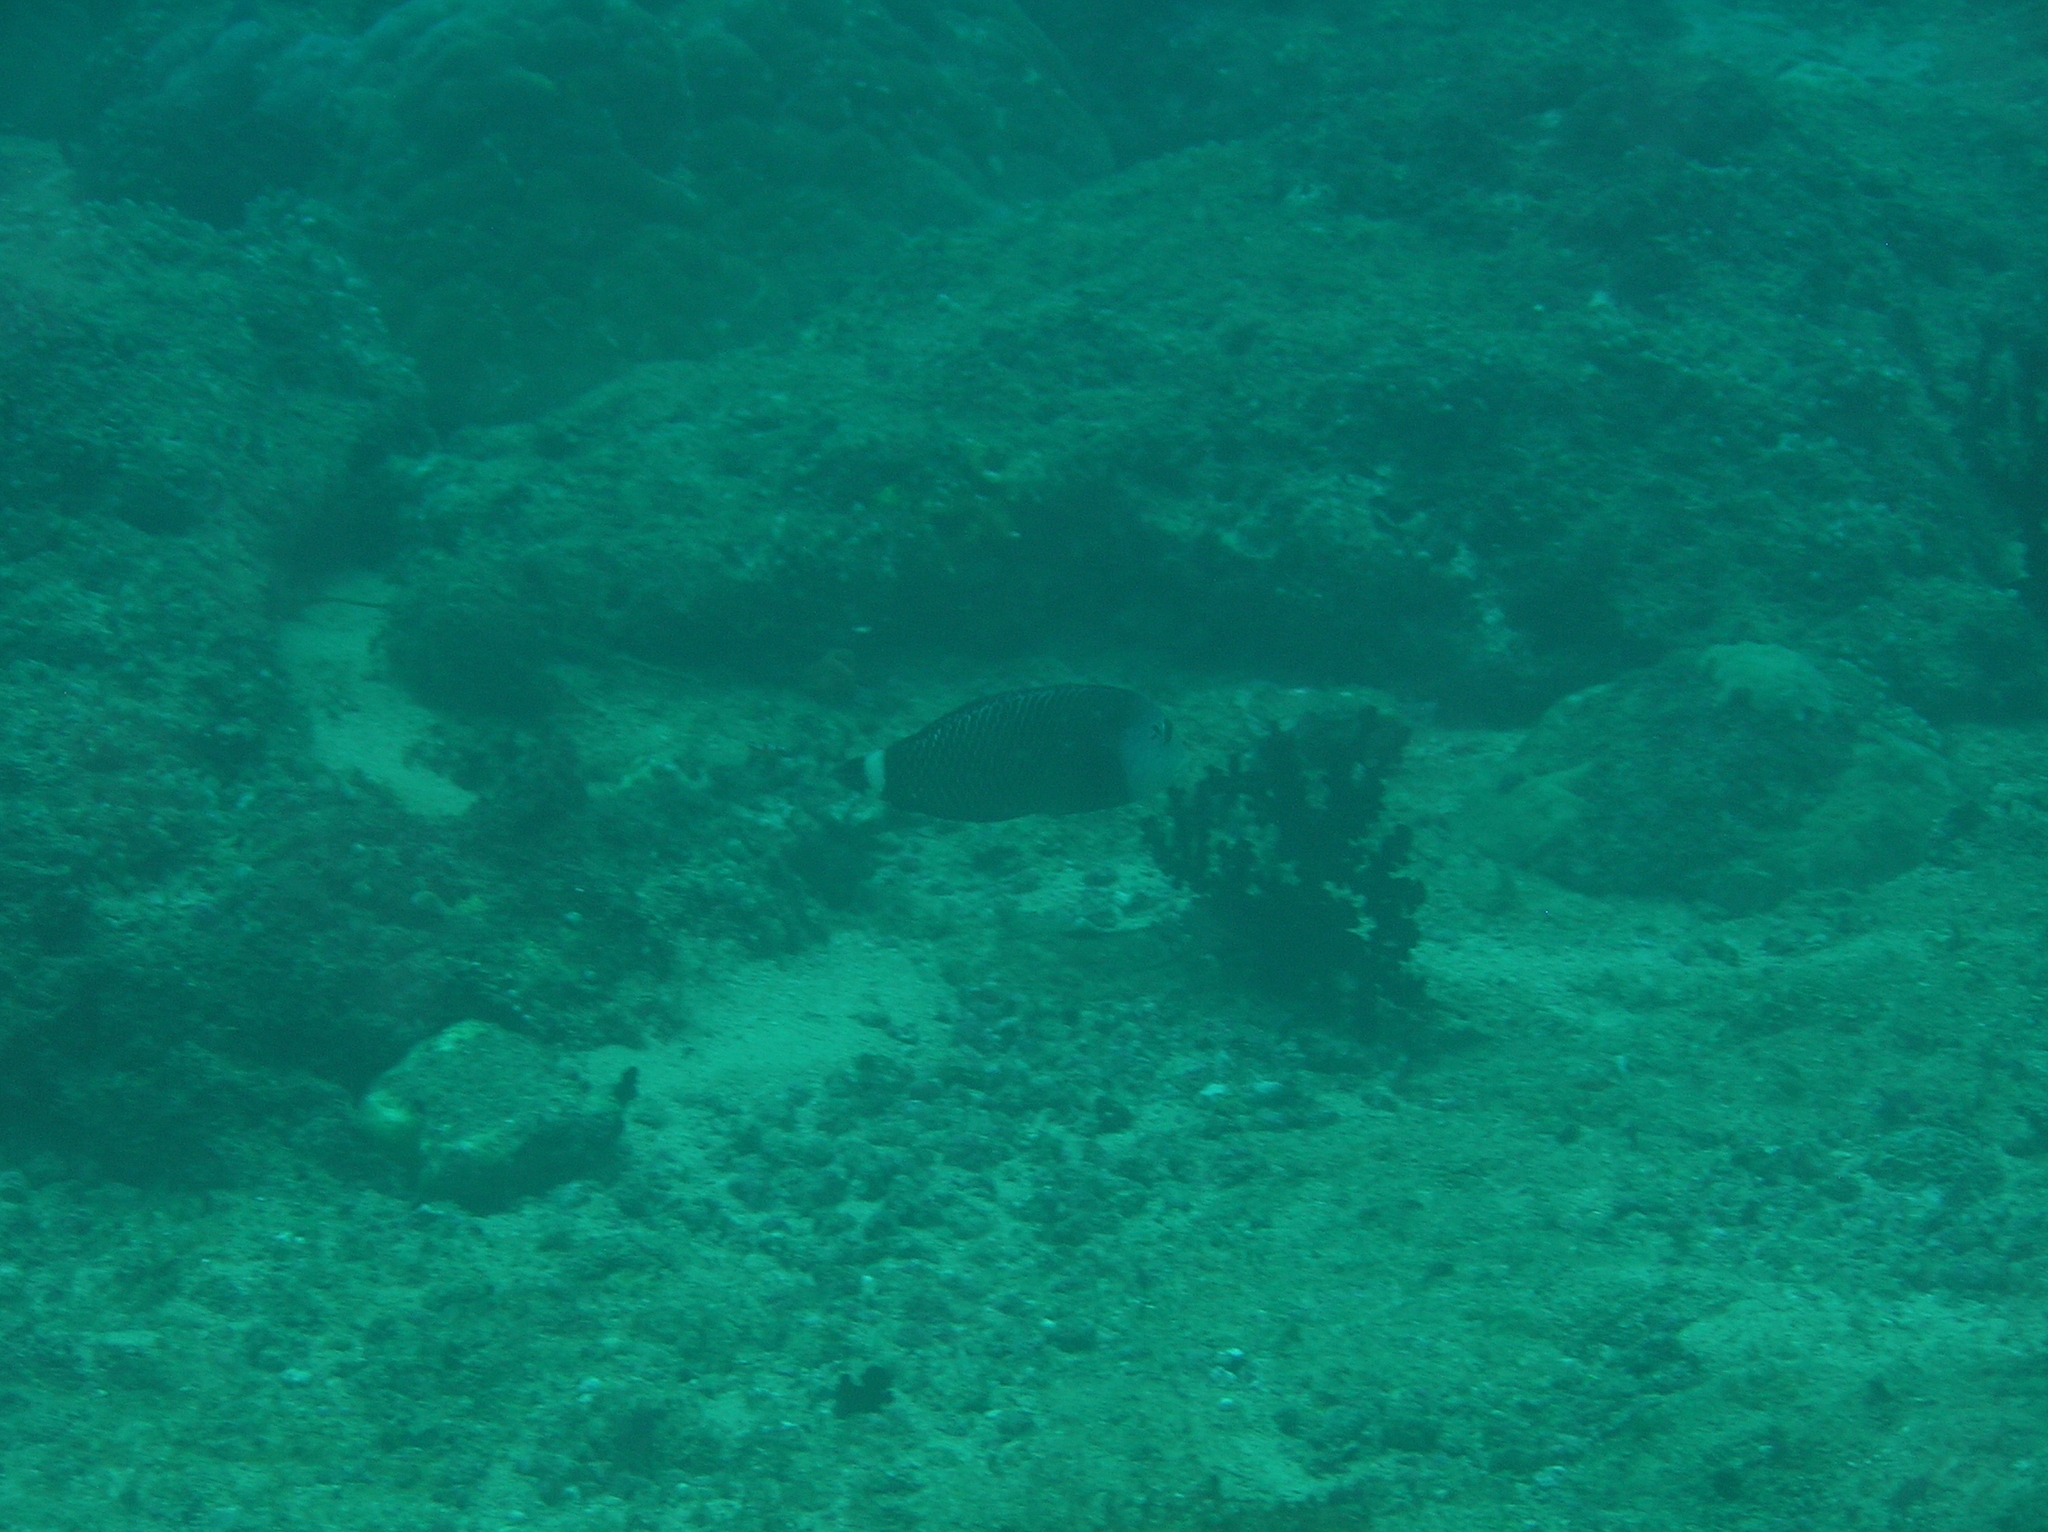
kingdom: Animalia
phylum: Chordata
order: Perciformes
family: Labridae
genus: Novaculichthys
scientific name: Novaculichthys taeniourus
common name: Rockmover wrasse
